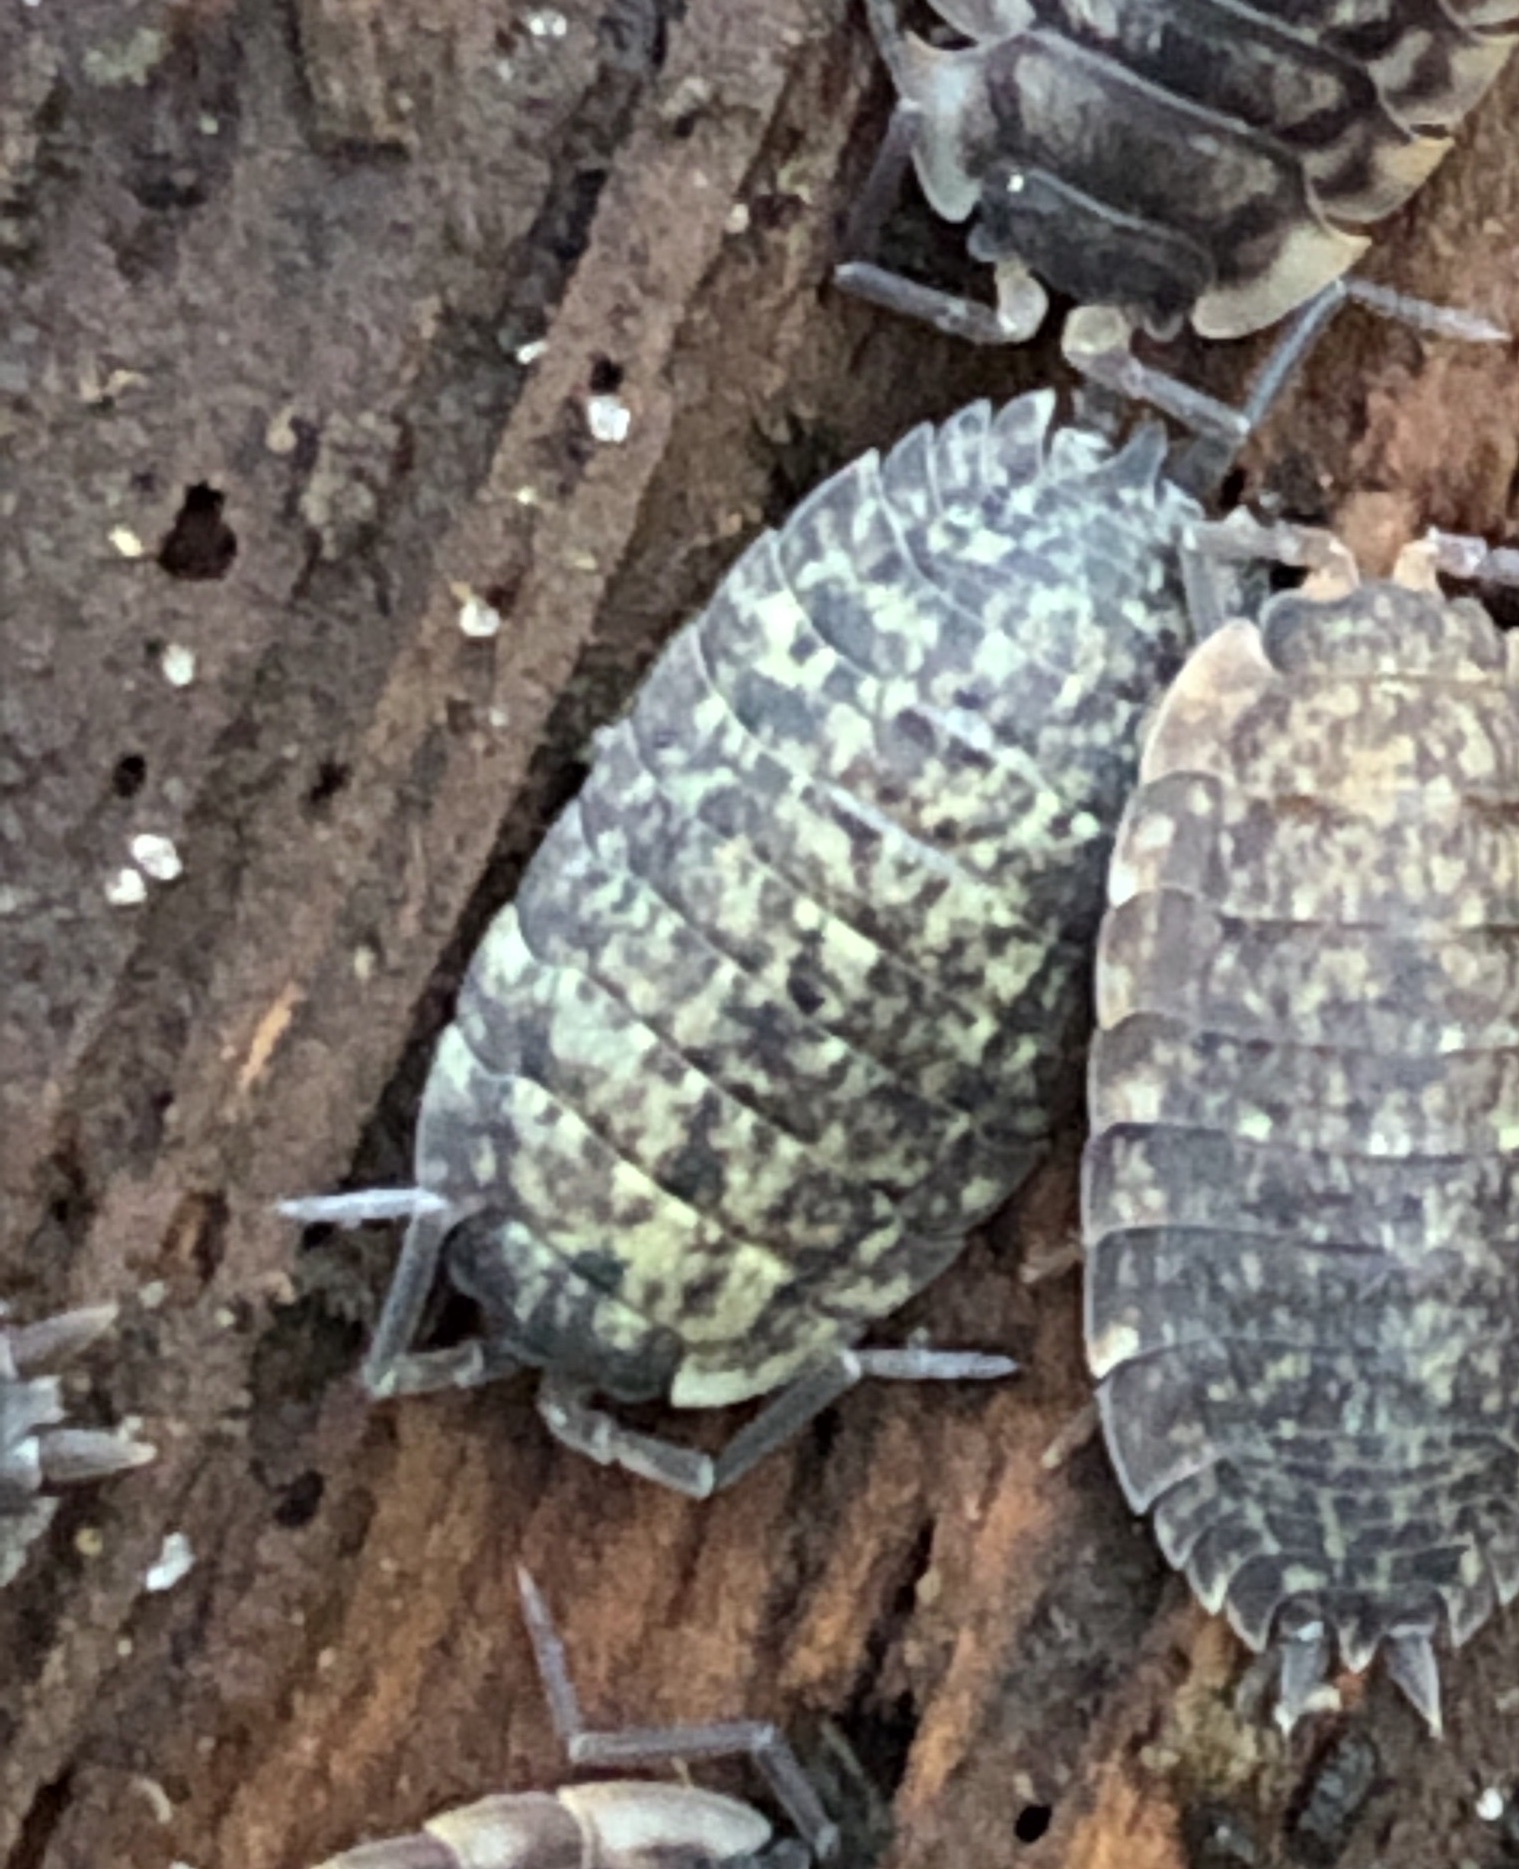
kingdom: Animalia
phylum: Arthropoda
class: Malacostraca
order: Isopoda
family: Porcellionidae
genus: Porcellio
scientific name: Porcellio scaber
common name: Common rough woodlouse
